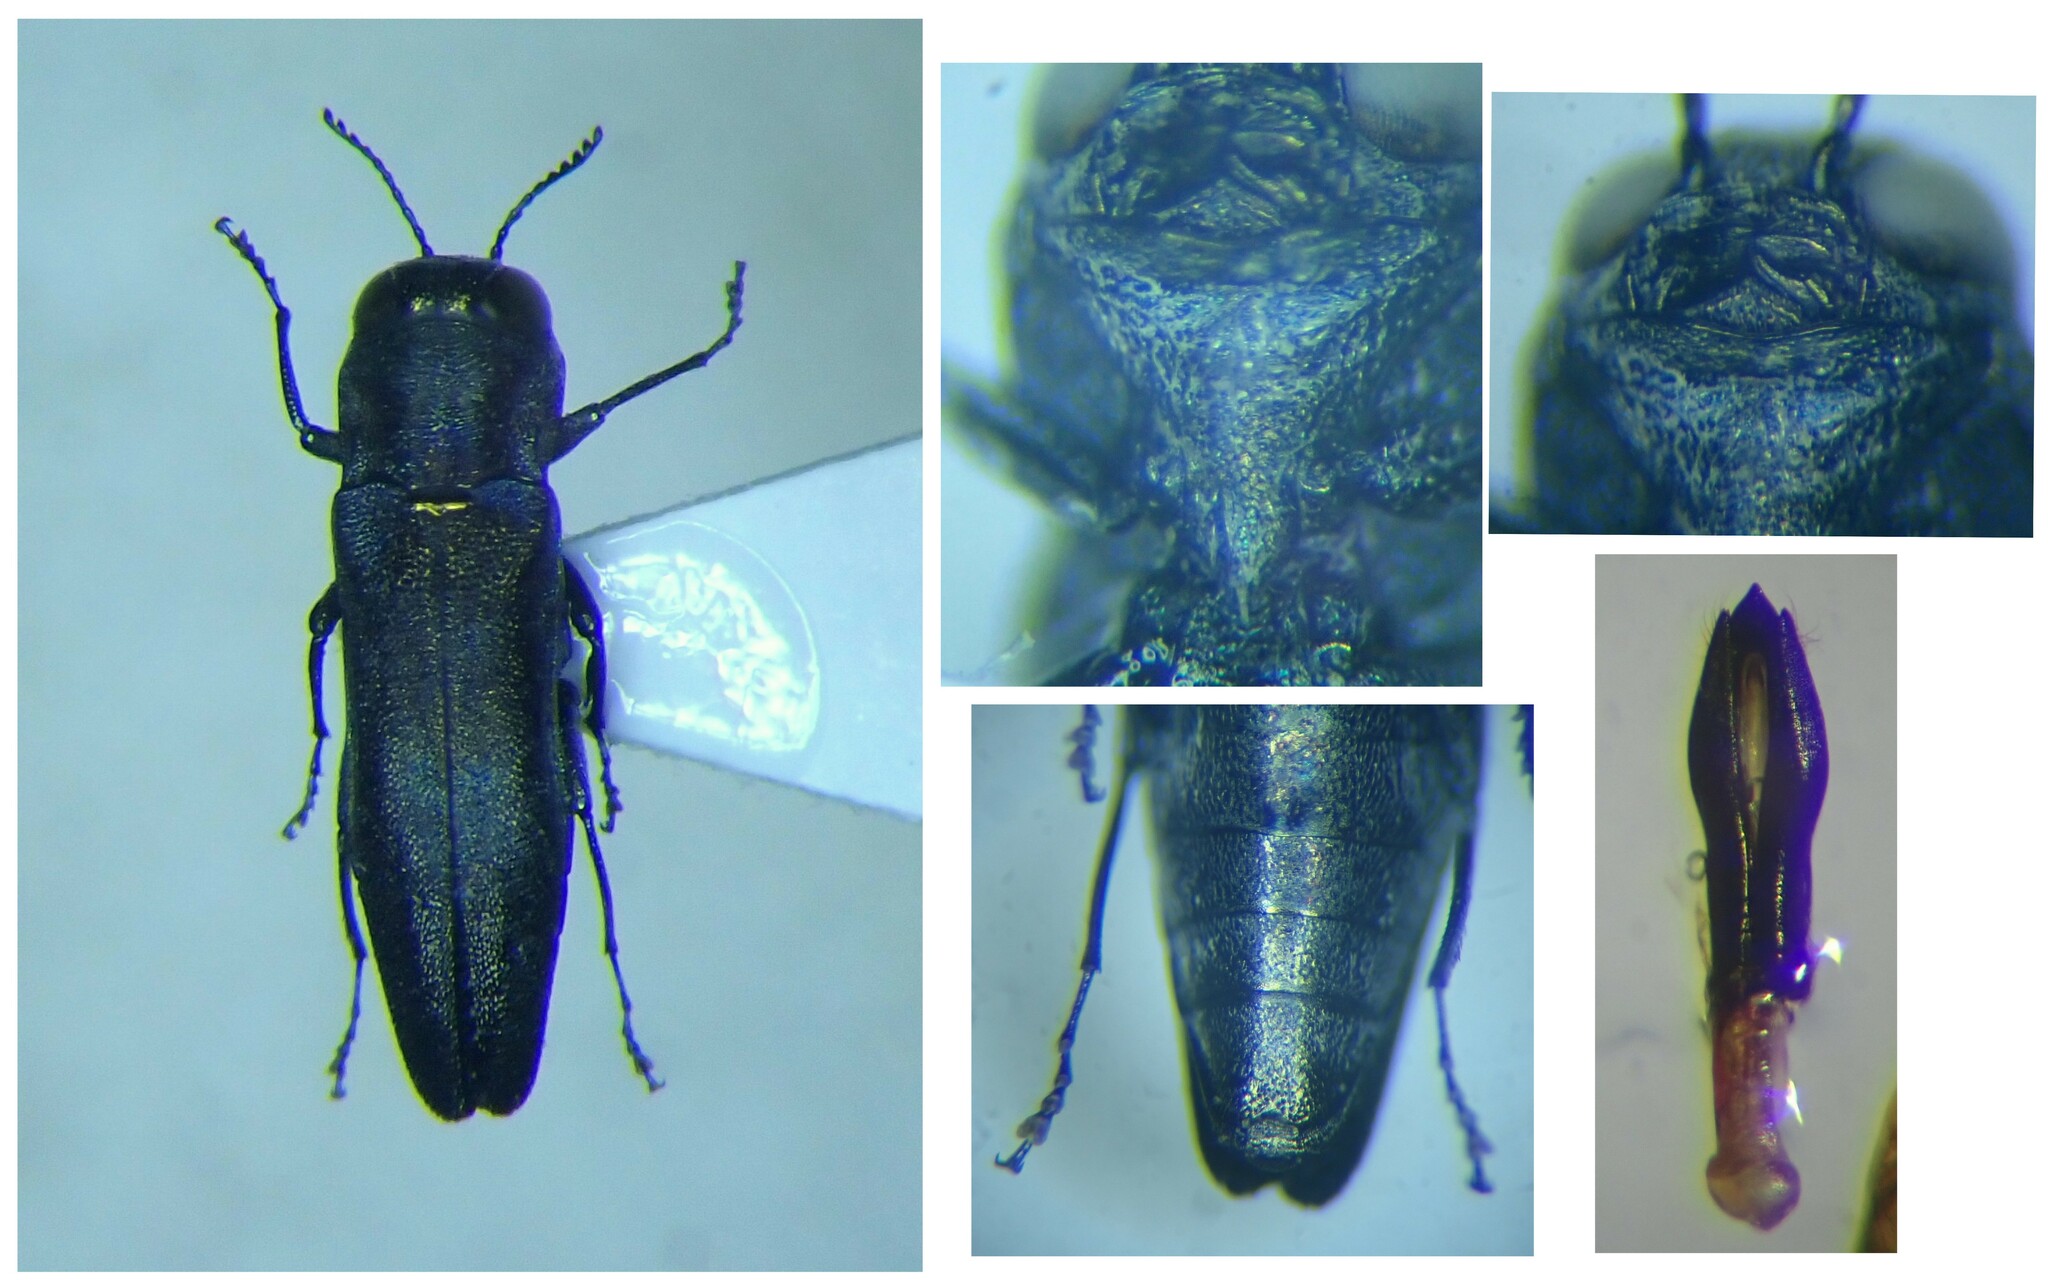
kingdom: Animalia
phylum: Arthropoda
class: Insecta
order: Coleoptera
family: Buprestidae
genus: Agrilus
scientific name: Agrilus hastulifer
